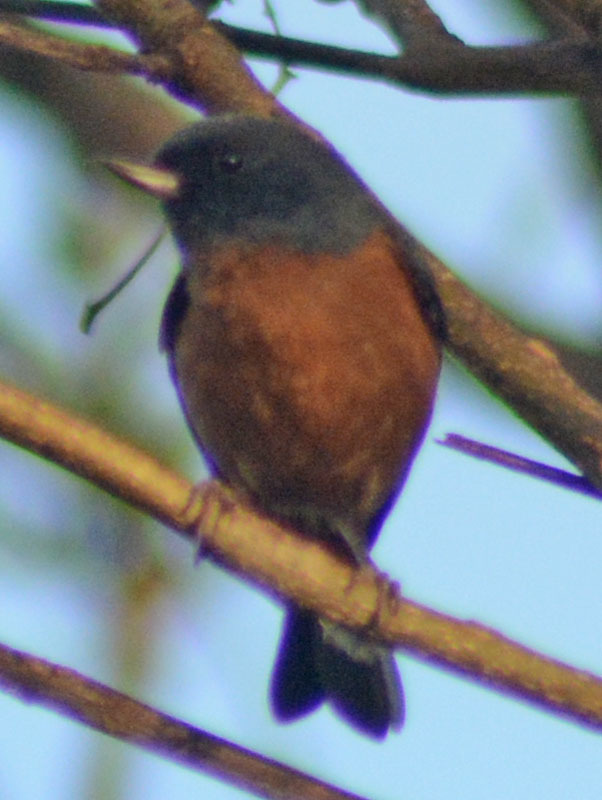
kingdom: Animalia
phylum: Chordata
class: Aves
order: Passeriformes
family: Thraupidae
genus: Diglossa
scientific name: Diglossa baritula
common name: Cinnamon-bellied flowerpiercer
